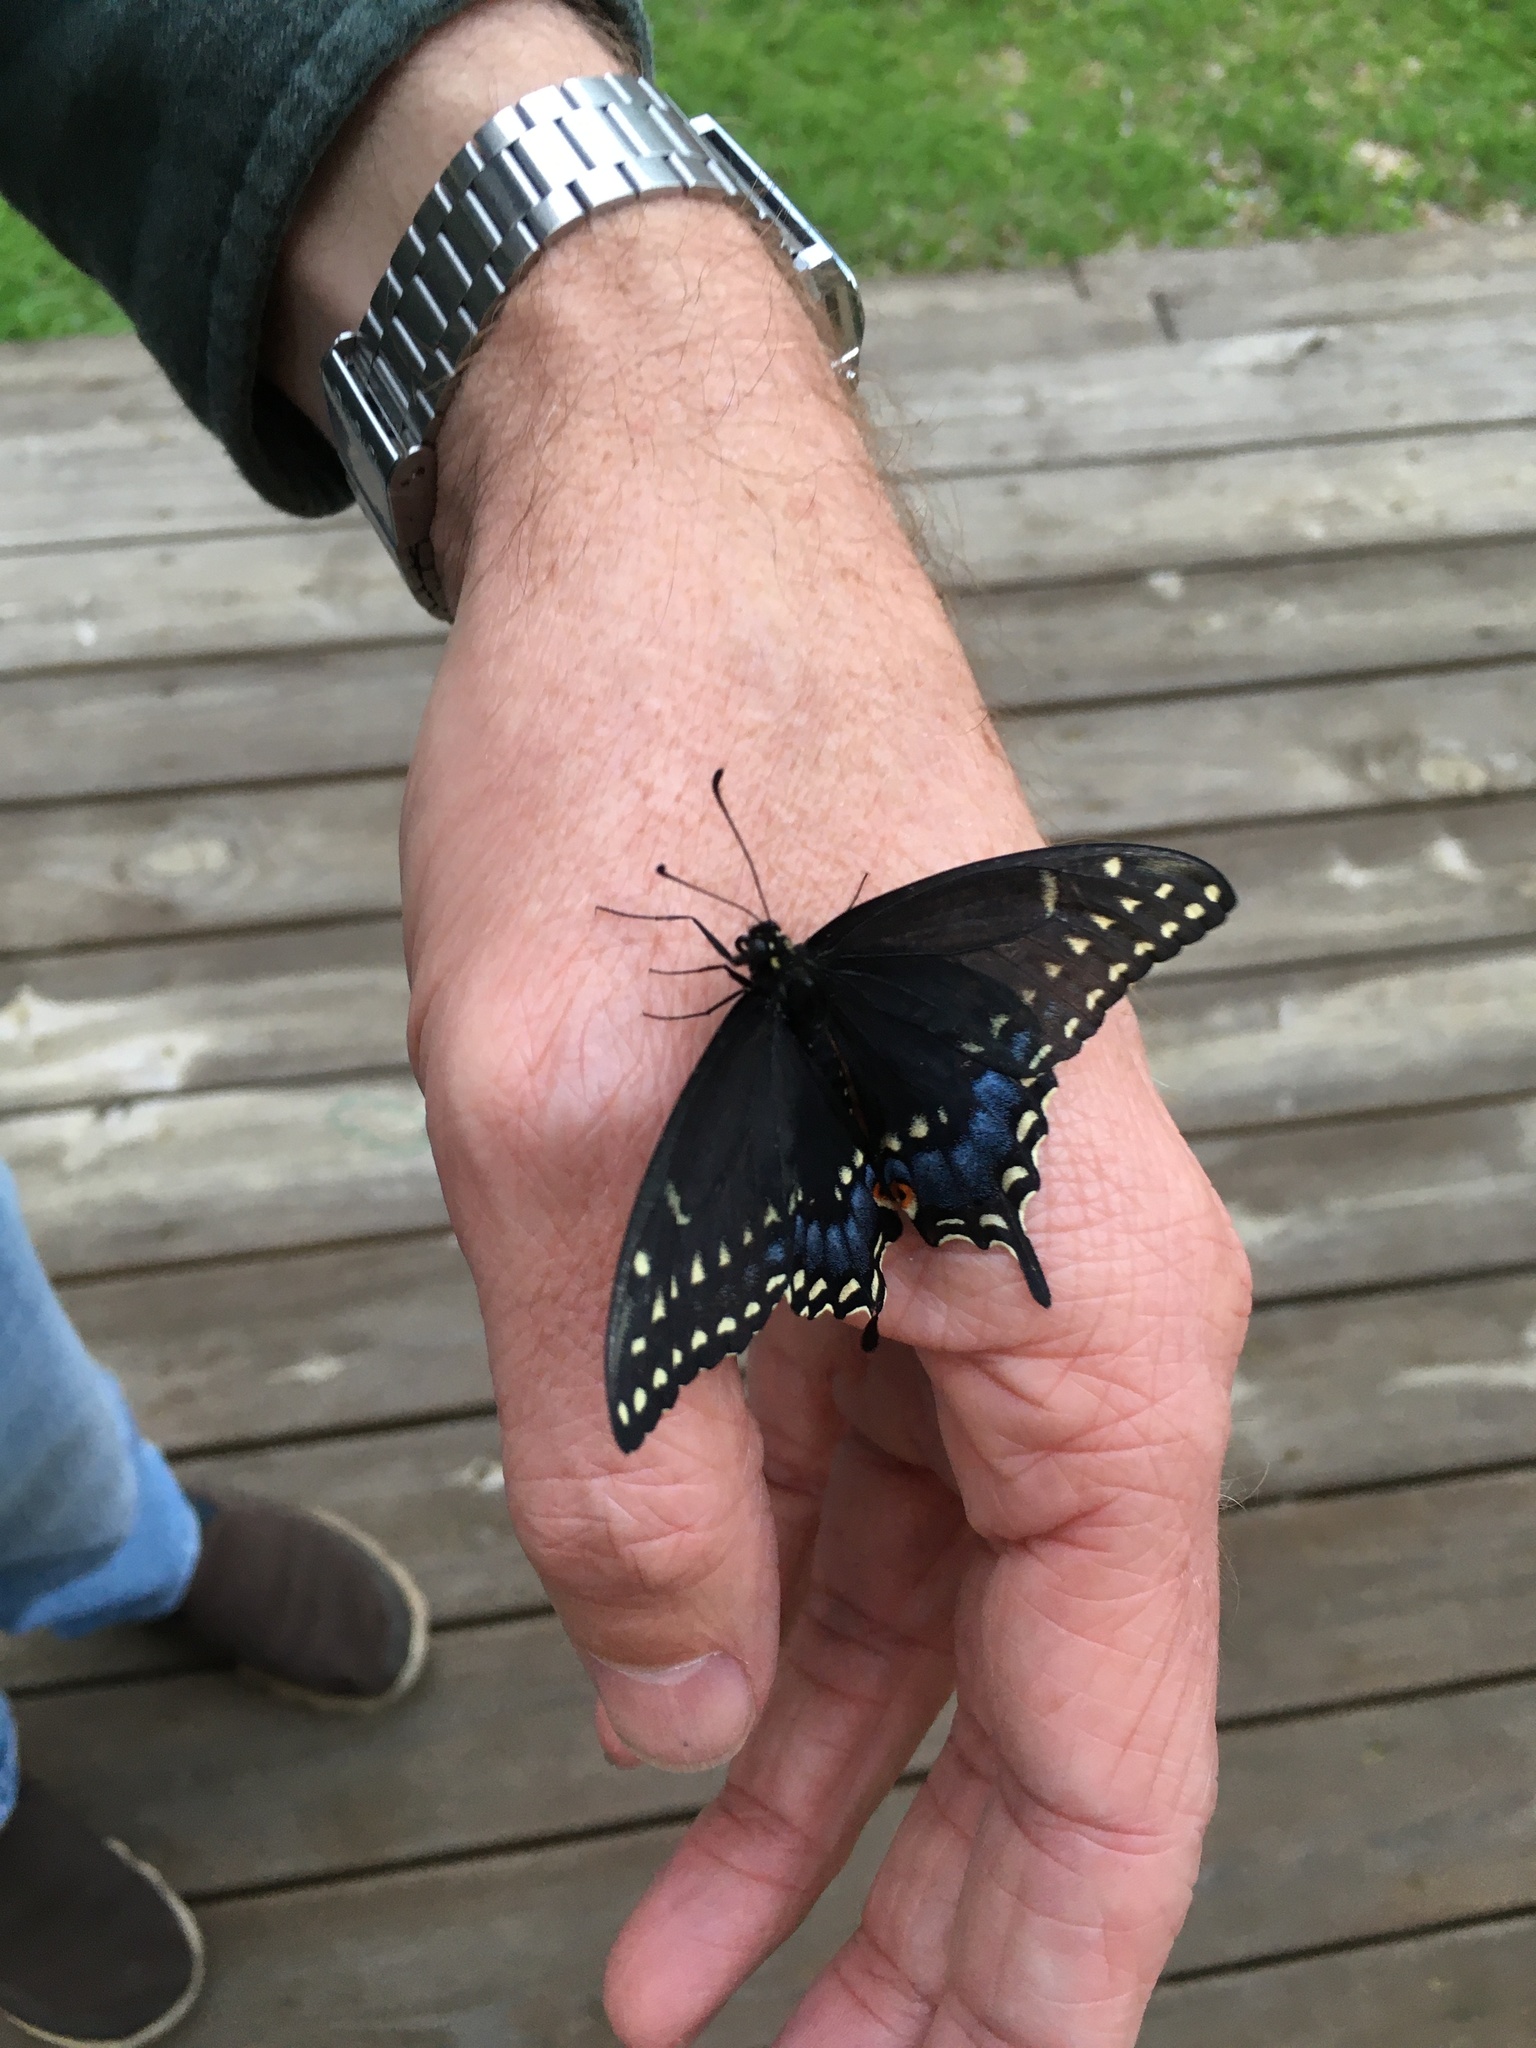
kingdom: Animalia
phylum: Arthropoda
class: Insecta
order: Lepidoptera
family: Papilionidae
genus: Papilio
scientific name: Papilio polyxenes
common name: Black swallowtail
